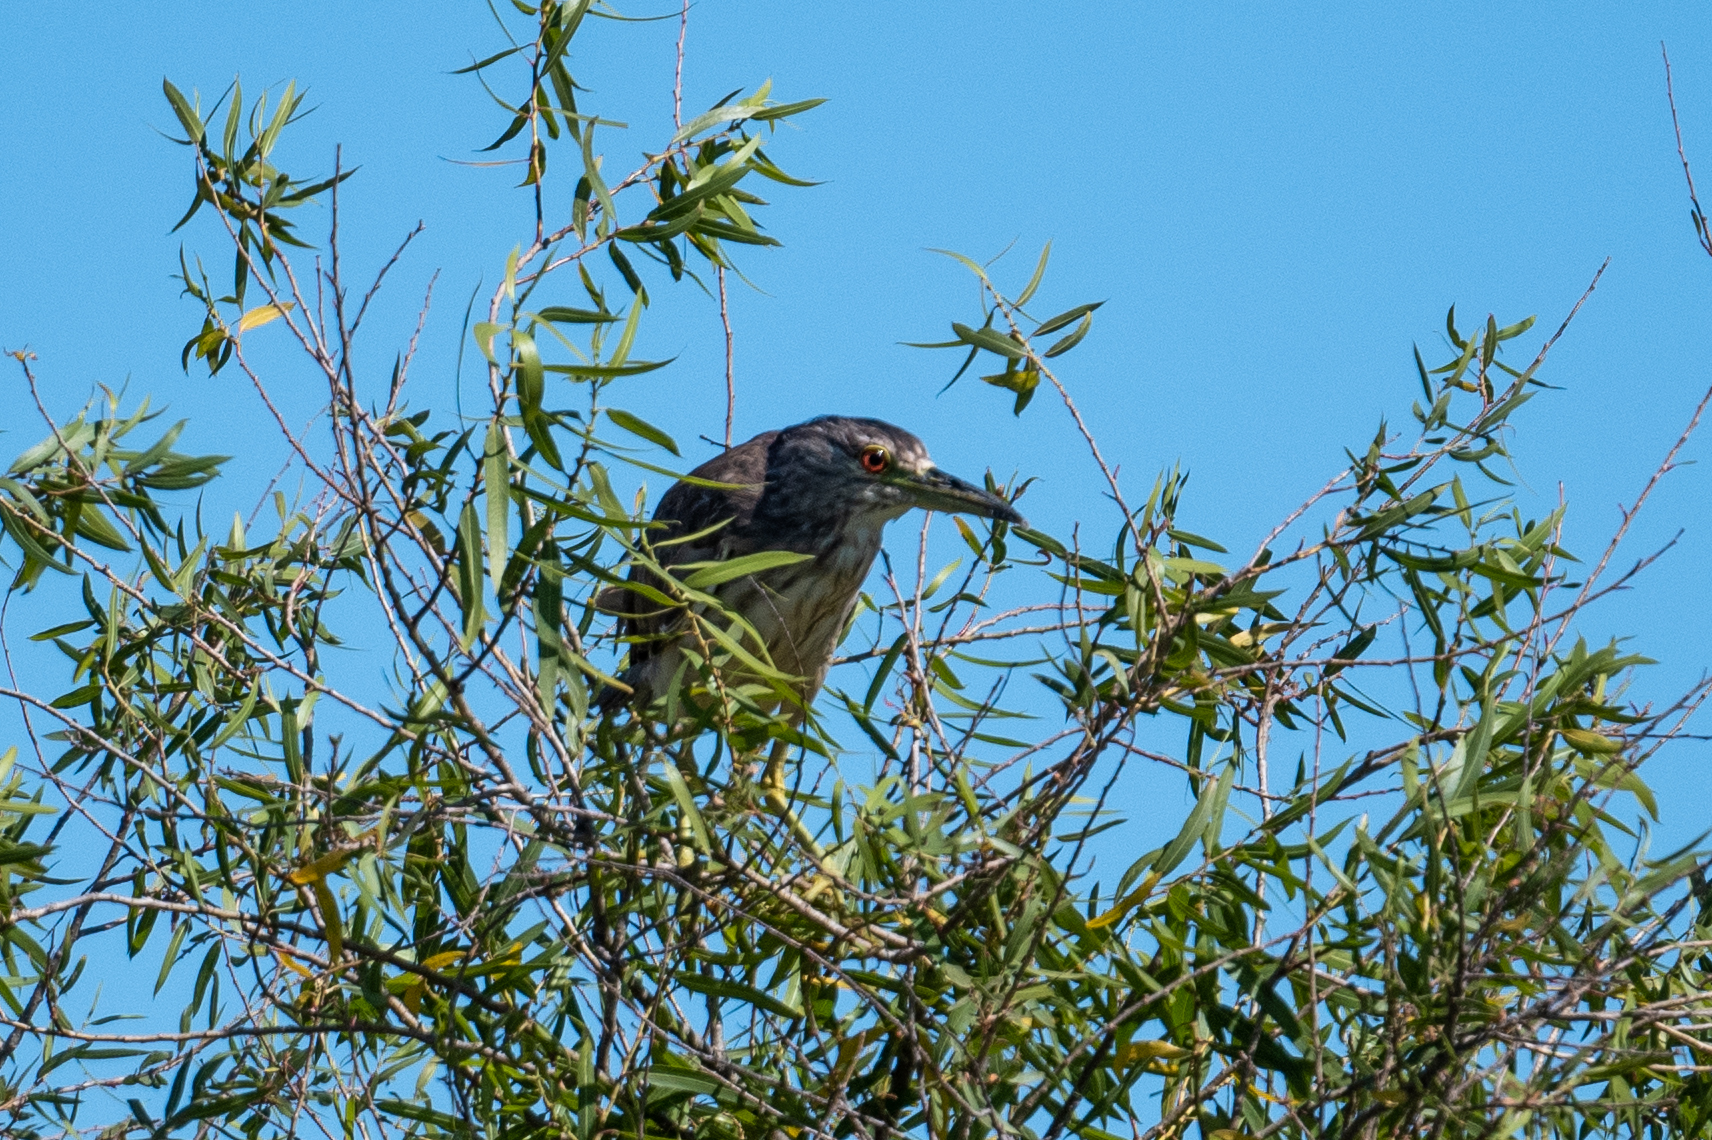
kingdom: Animalia
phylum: Chordata
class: Aves
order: Pelecaniformes
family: Ardeidae
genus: Nycticorax
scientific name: Nycticorax nycticorax
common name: Black-crowned night heron
